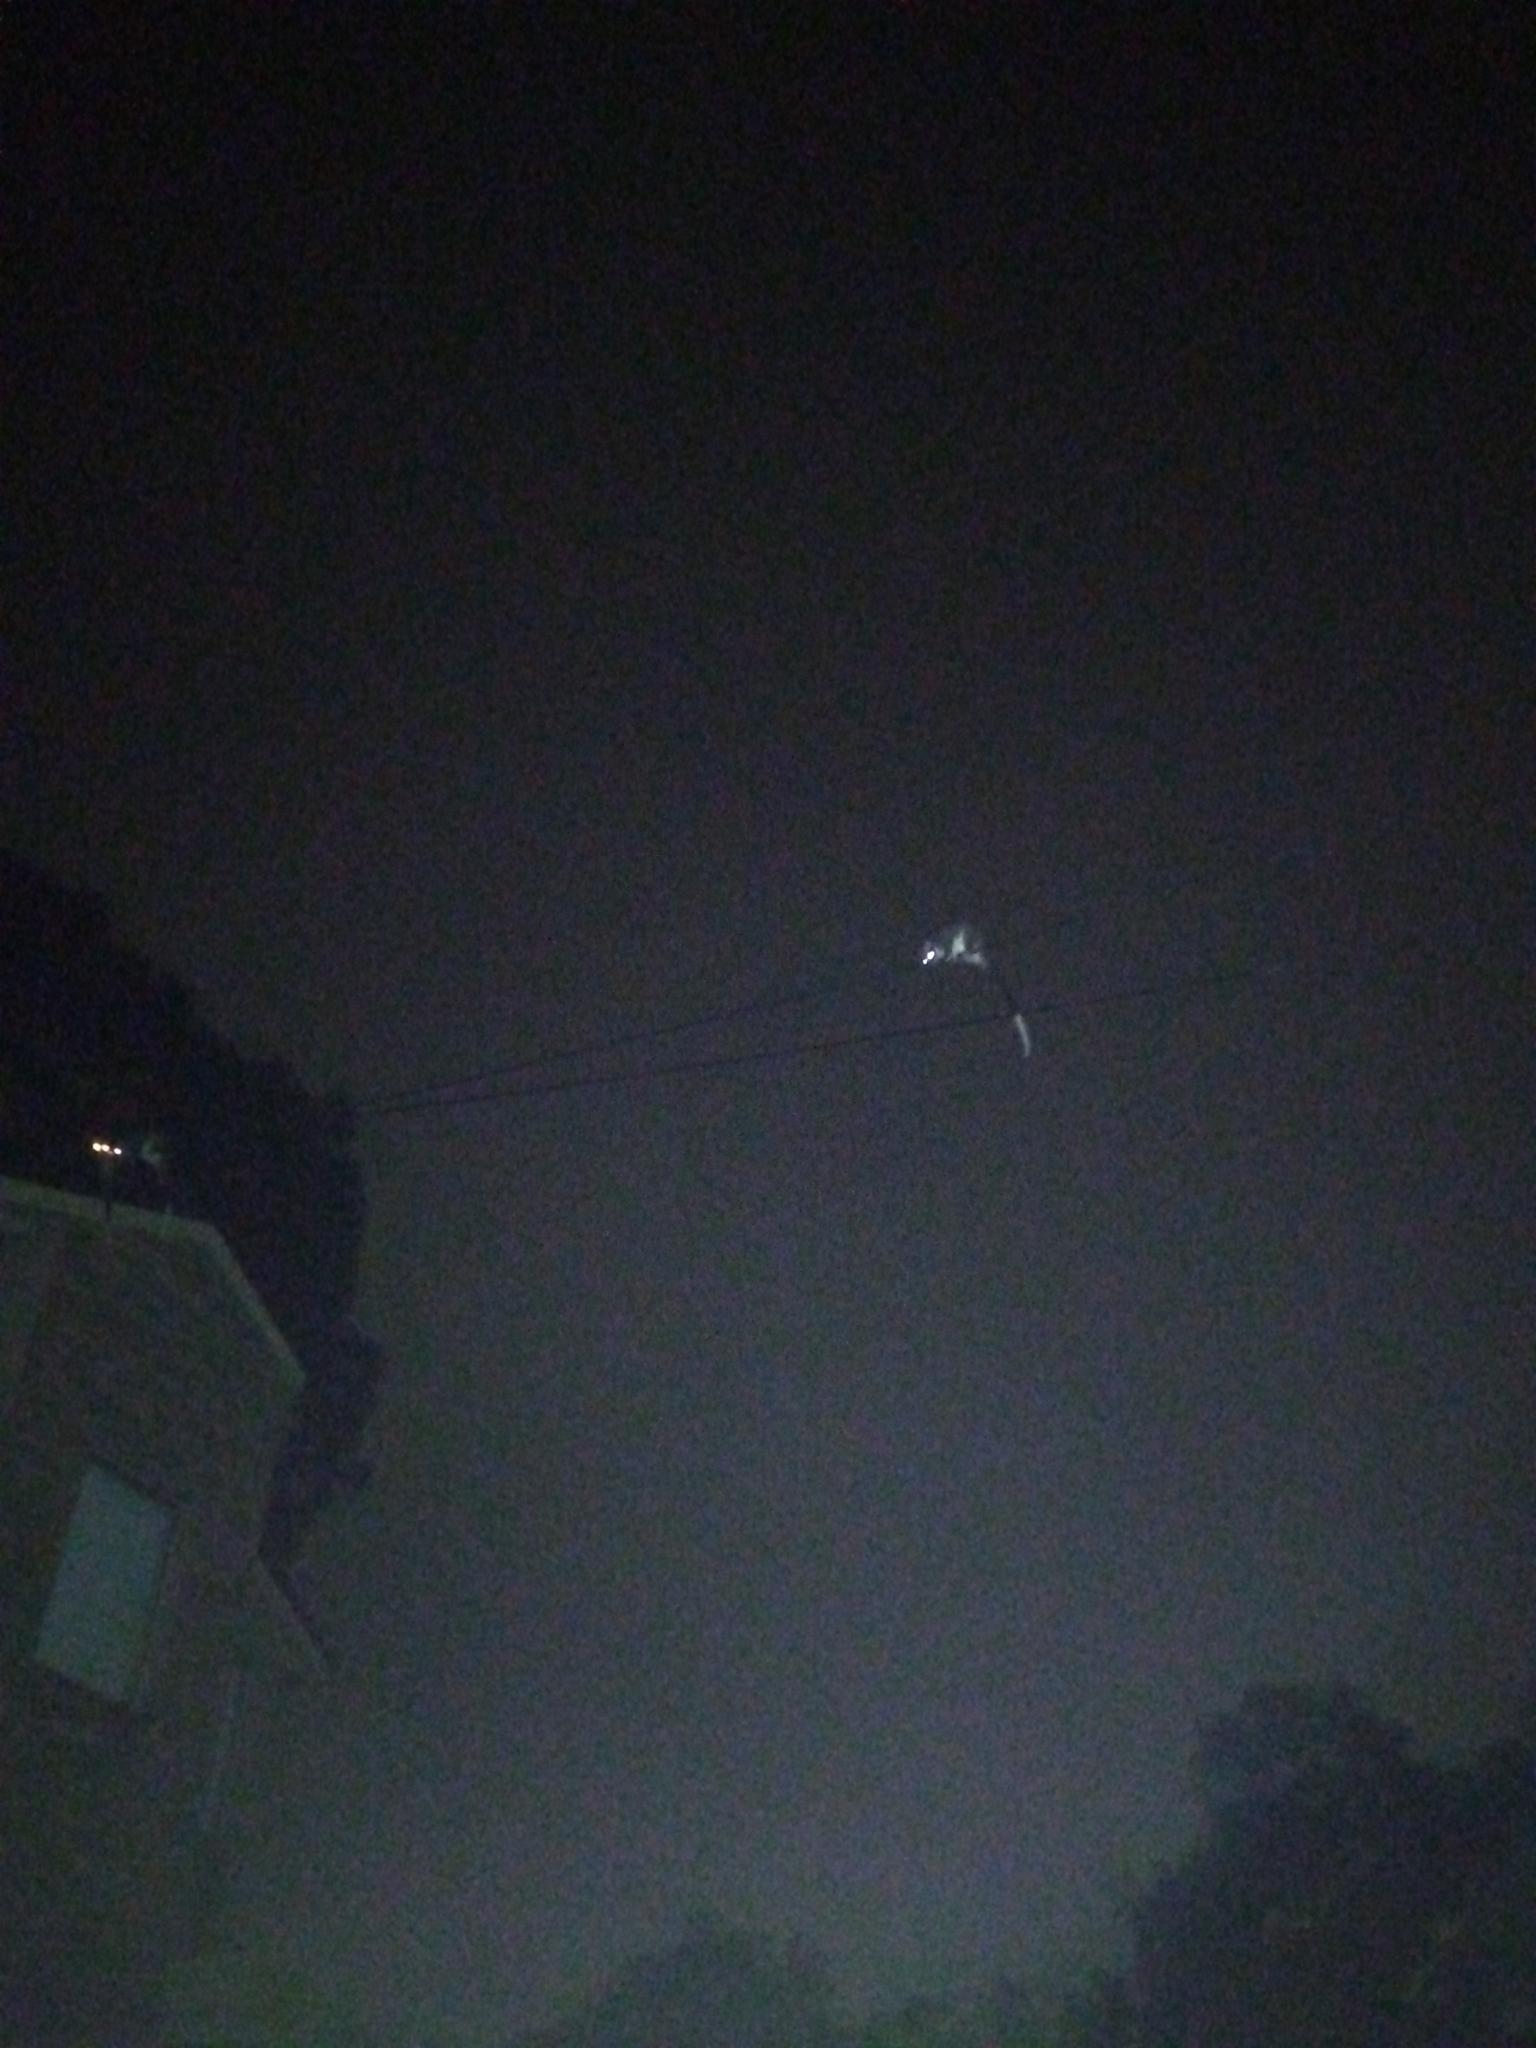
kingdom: Animalia
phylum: Chordata
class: Mammalia
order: Diprotodontia
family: Pseudocheiridae
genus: Pseudocheirus
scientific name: Pseudocheirus peregrinus
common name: Common ringtail possum
